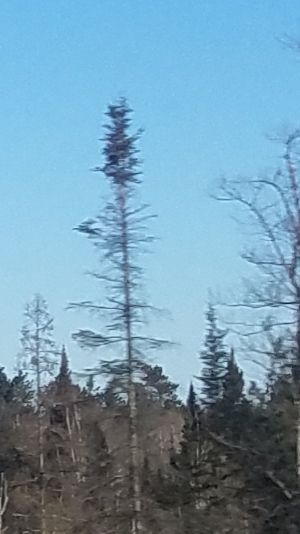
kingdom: Plantae
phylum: Tracheophyta
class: Pinopsida
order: Pinales
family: Pinaceae
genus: Picea
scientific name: Picea mariana
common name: Black spruce
